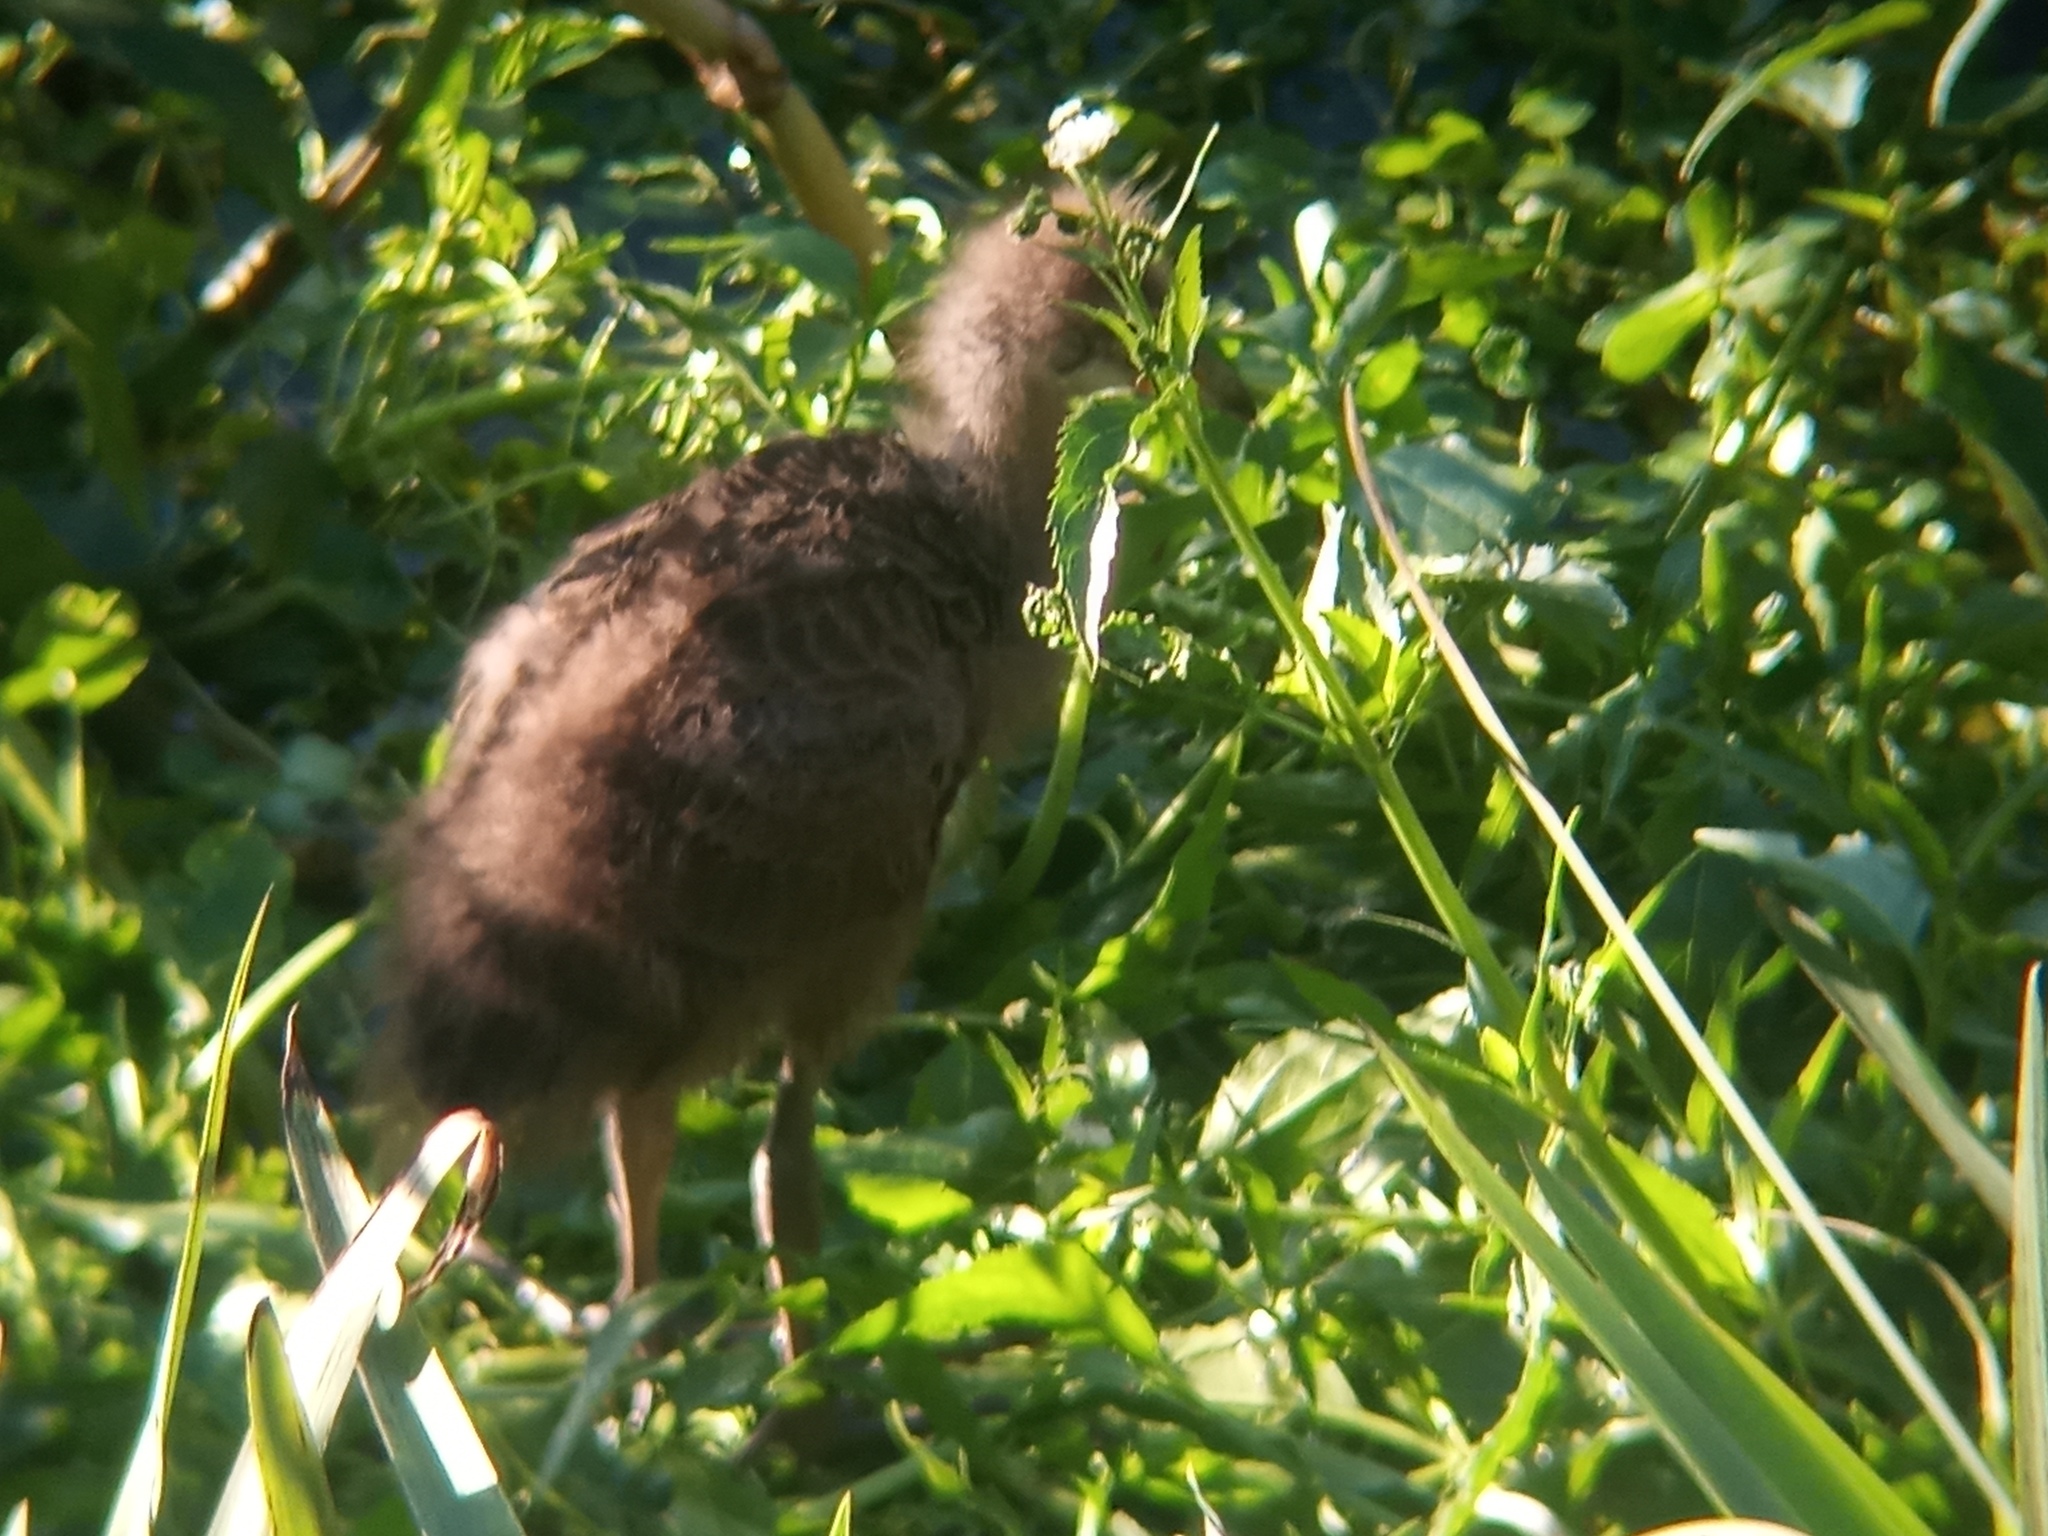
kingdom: Animalia
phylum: Chordata
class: Aves
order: Gruiformes
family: Aramidae
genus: Aramus
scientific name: Aramus guarauna
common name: Limpkin
